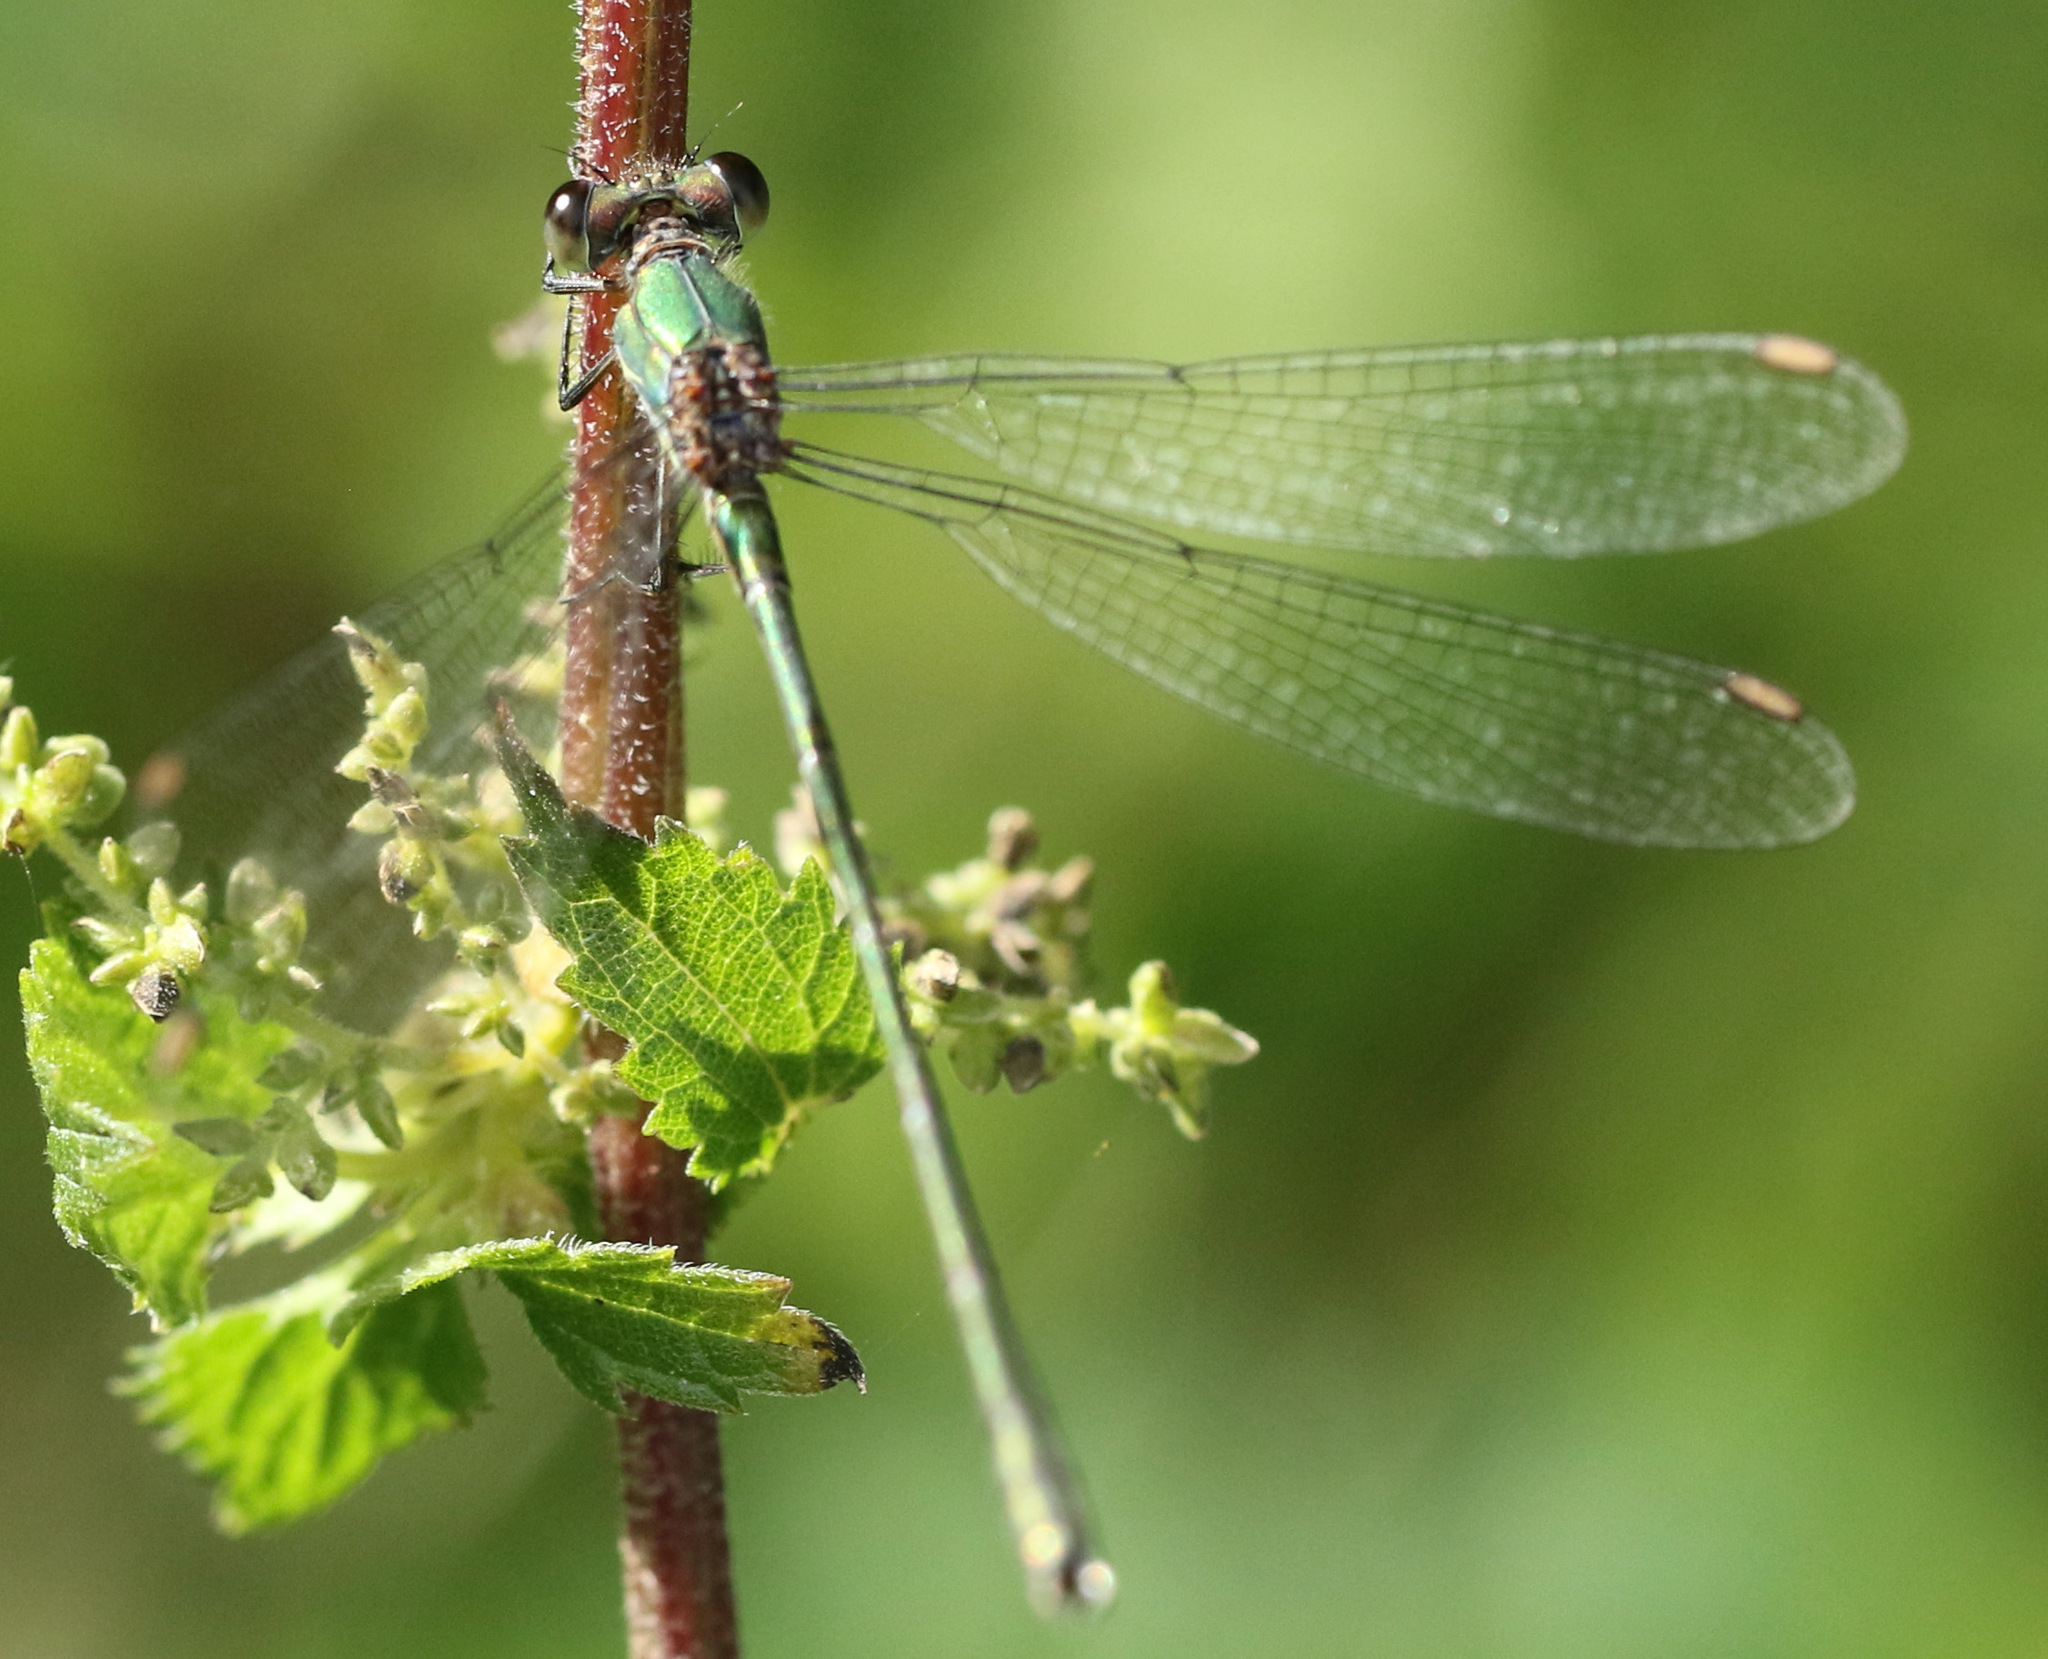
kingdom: Animalia
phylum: Arthropoda
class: Insecta
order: Odonata
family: Lestidae
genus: Chalcolestes
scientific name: Chalcolestes viridis
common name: Green emerald damselfly
